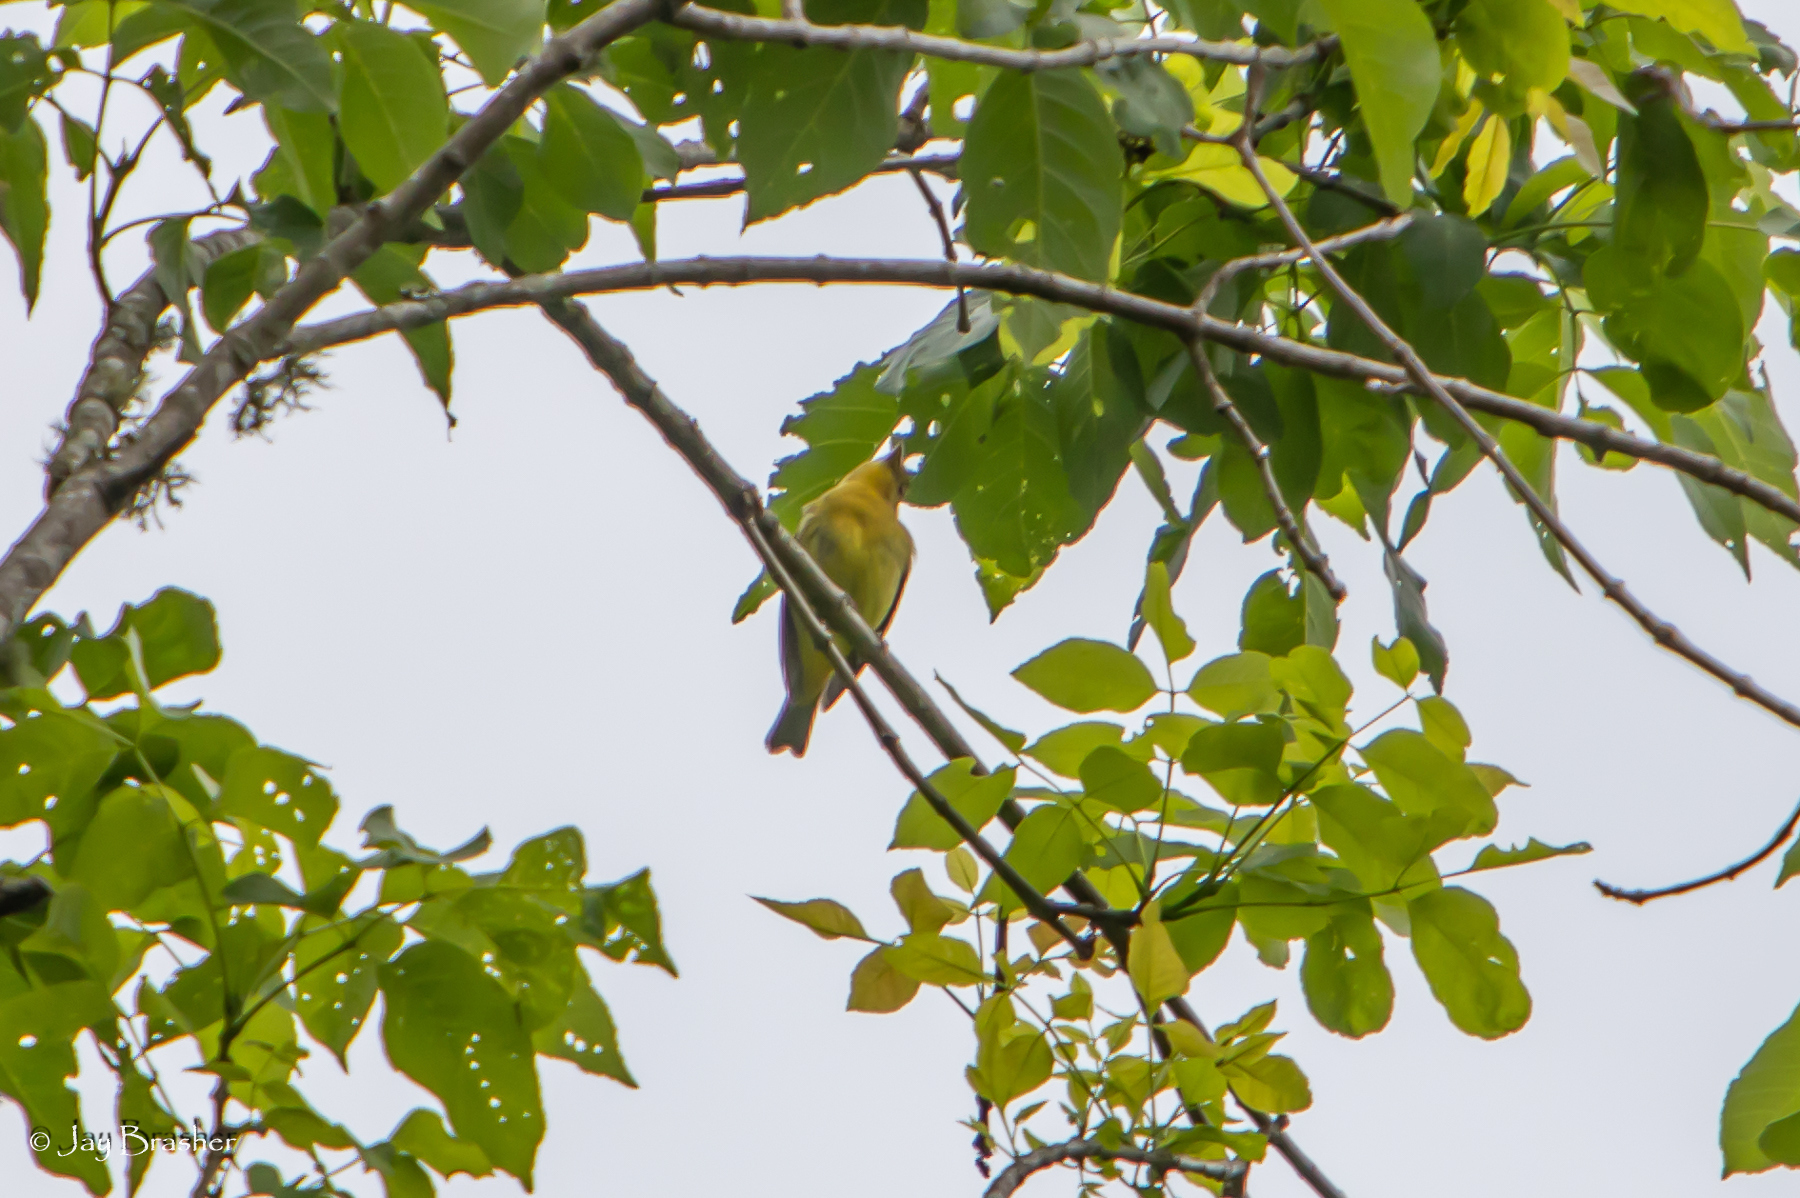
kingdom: Animalia
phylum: Chordata
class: Aves
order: Passeriformes
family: Cardinalidae
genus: Piranga
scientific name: Piranga rubra
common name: Summer tanager
